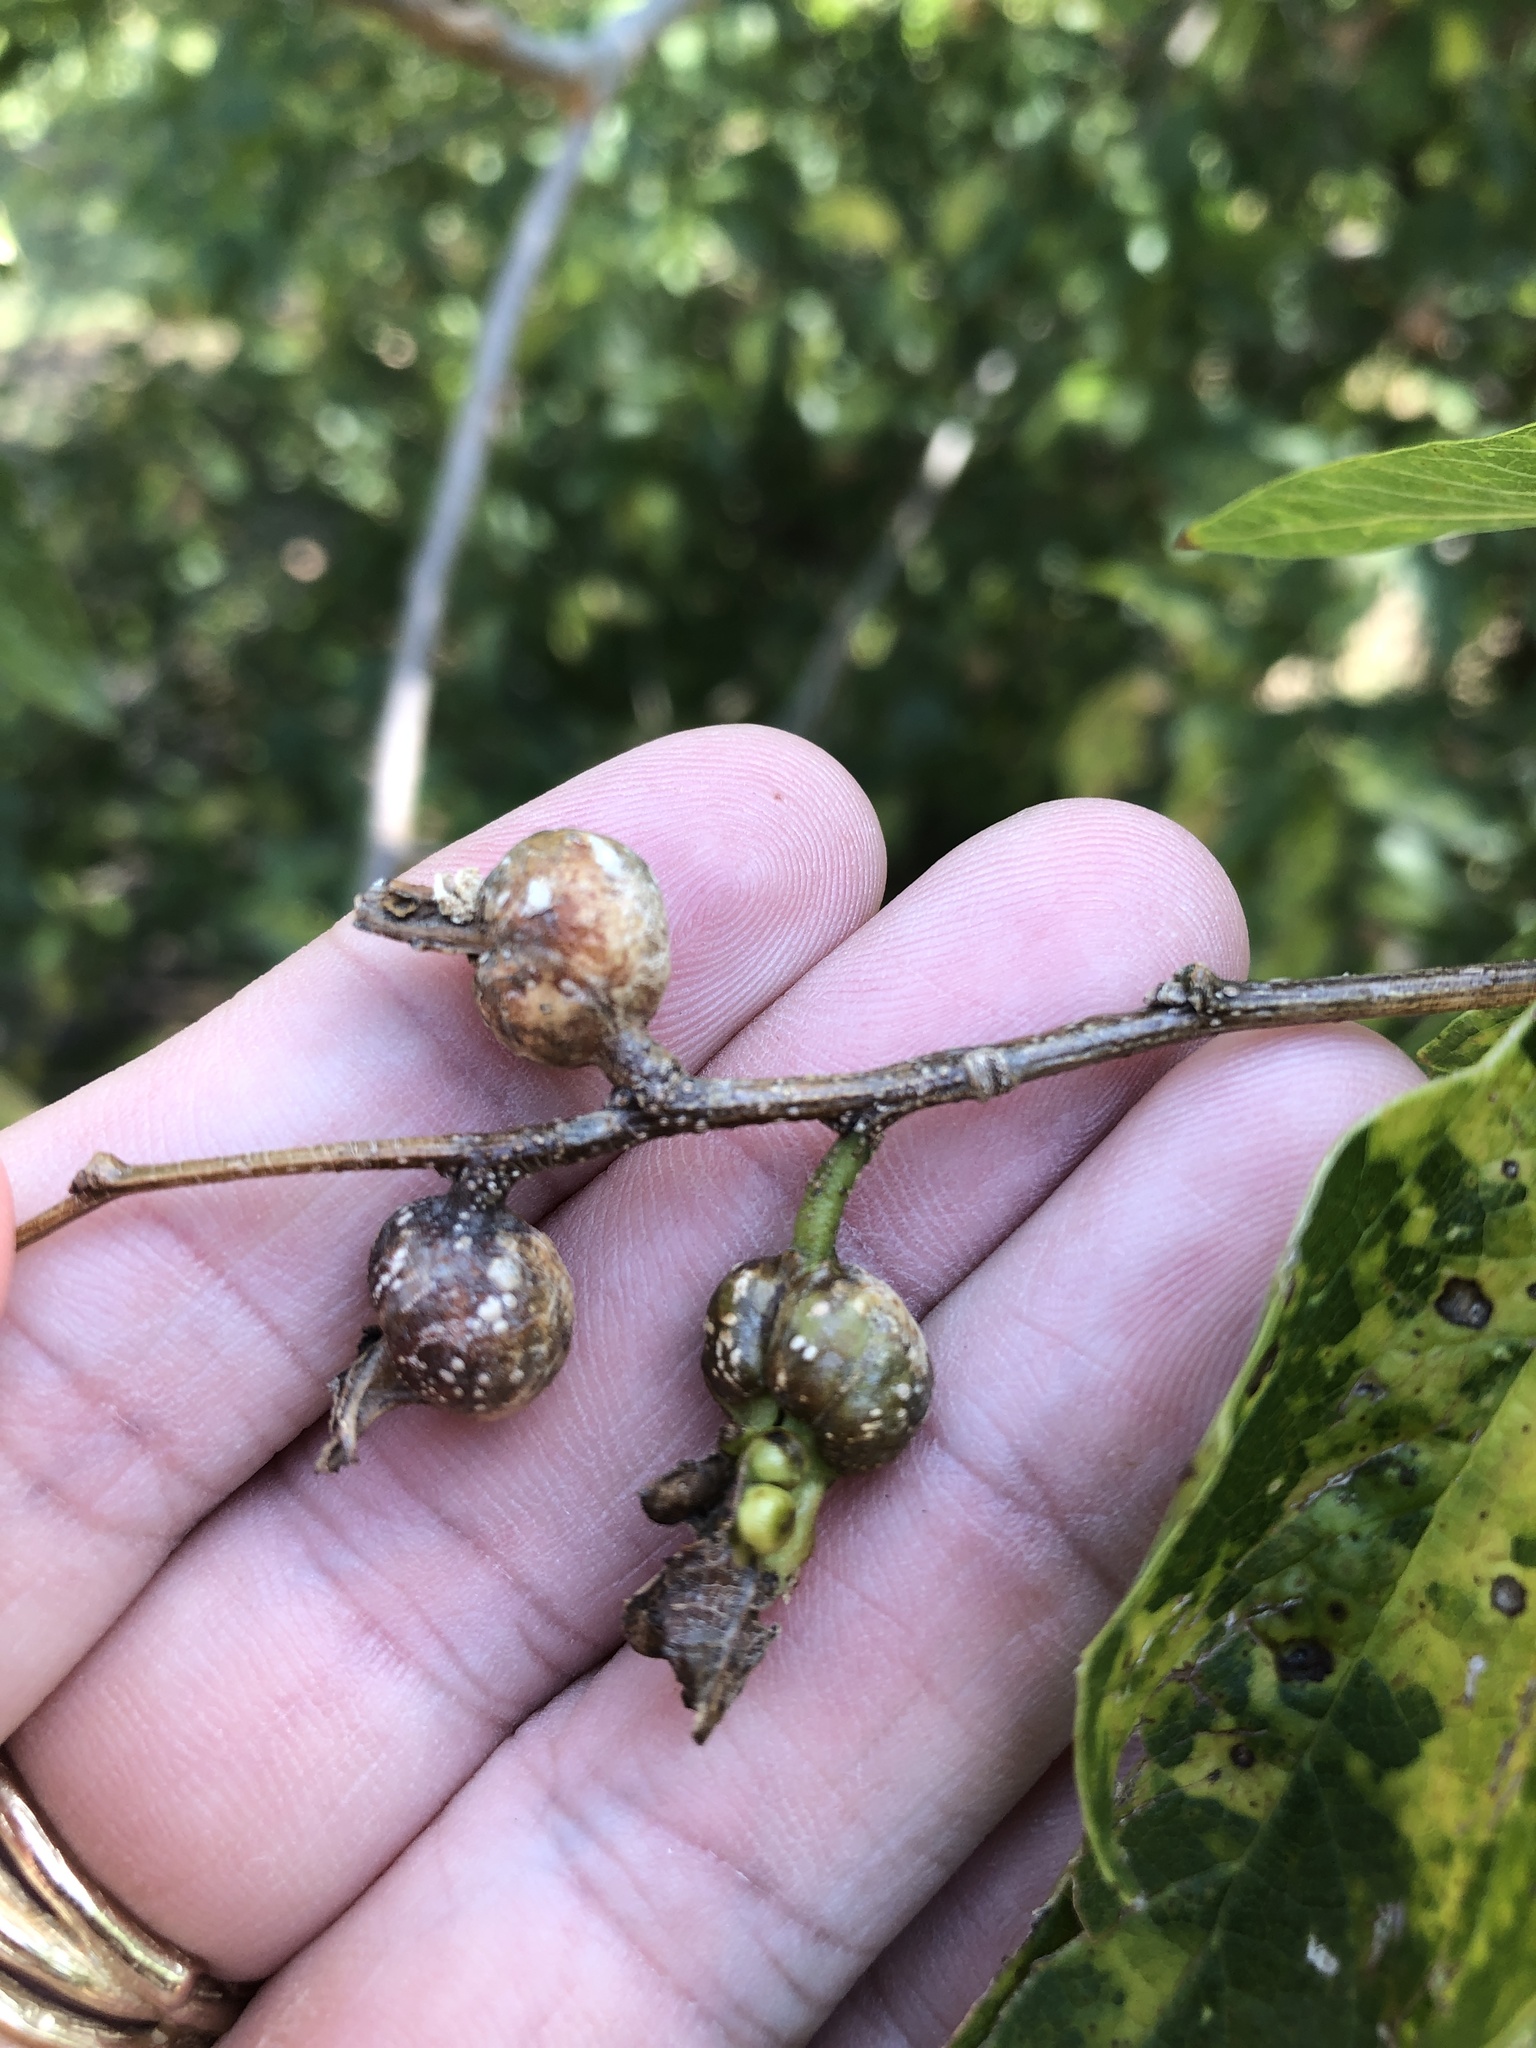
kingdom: Animalia
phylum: Arthropoda
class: Insecta
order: Hemiptera
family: Aphalaridae
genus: Pachypsylla
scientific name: Pachypsylla venusta
